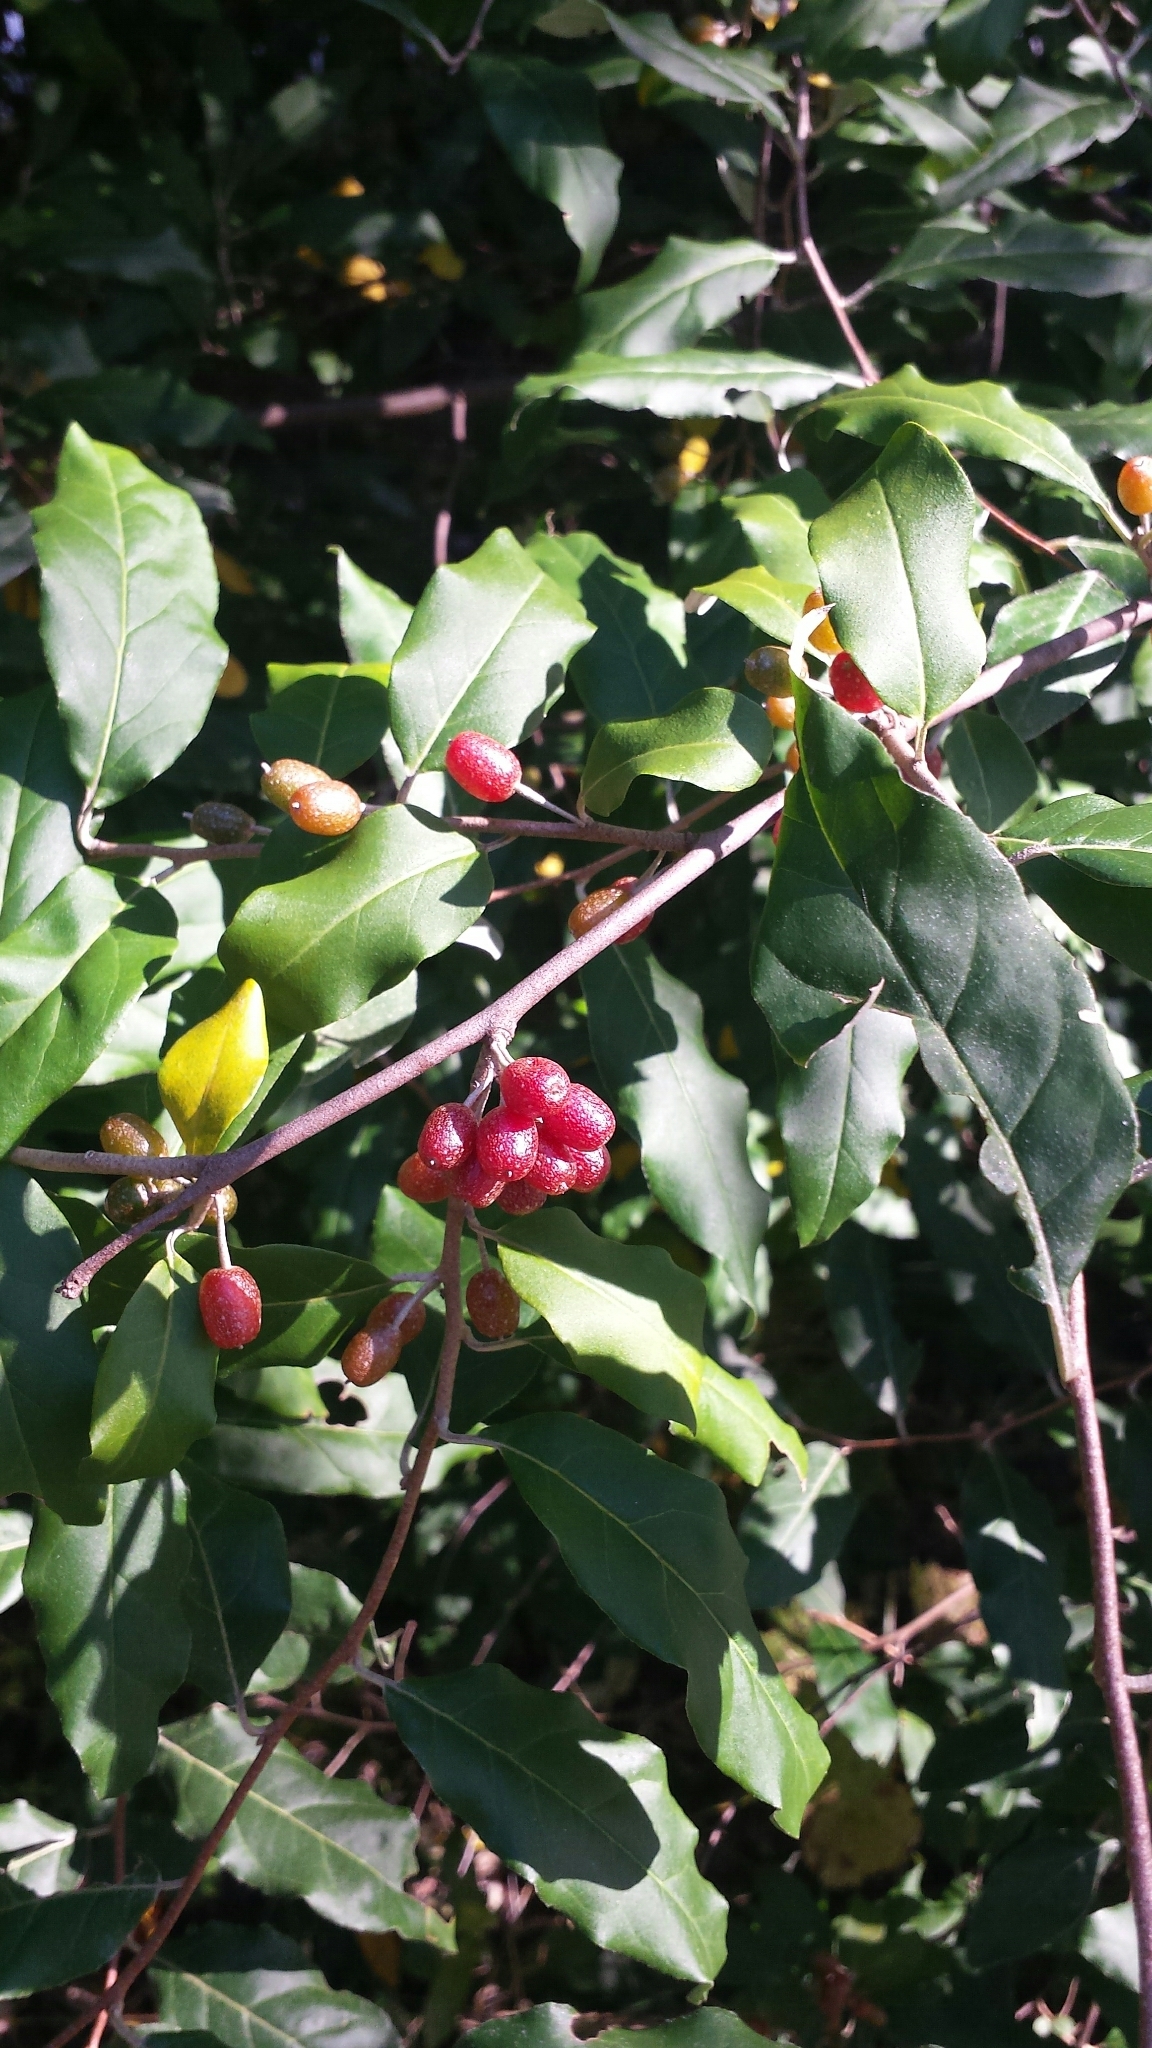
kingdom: Plantae
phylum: Tracheophyta
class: Magnoliopsida
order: Rosales
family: Elaeagnaceae
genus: Elaeagnus
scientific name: Elaeagnus umbellata
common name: Autumn olive
